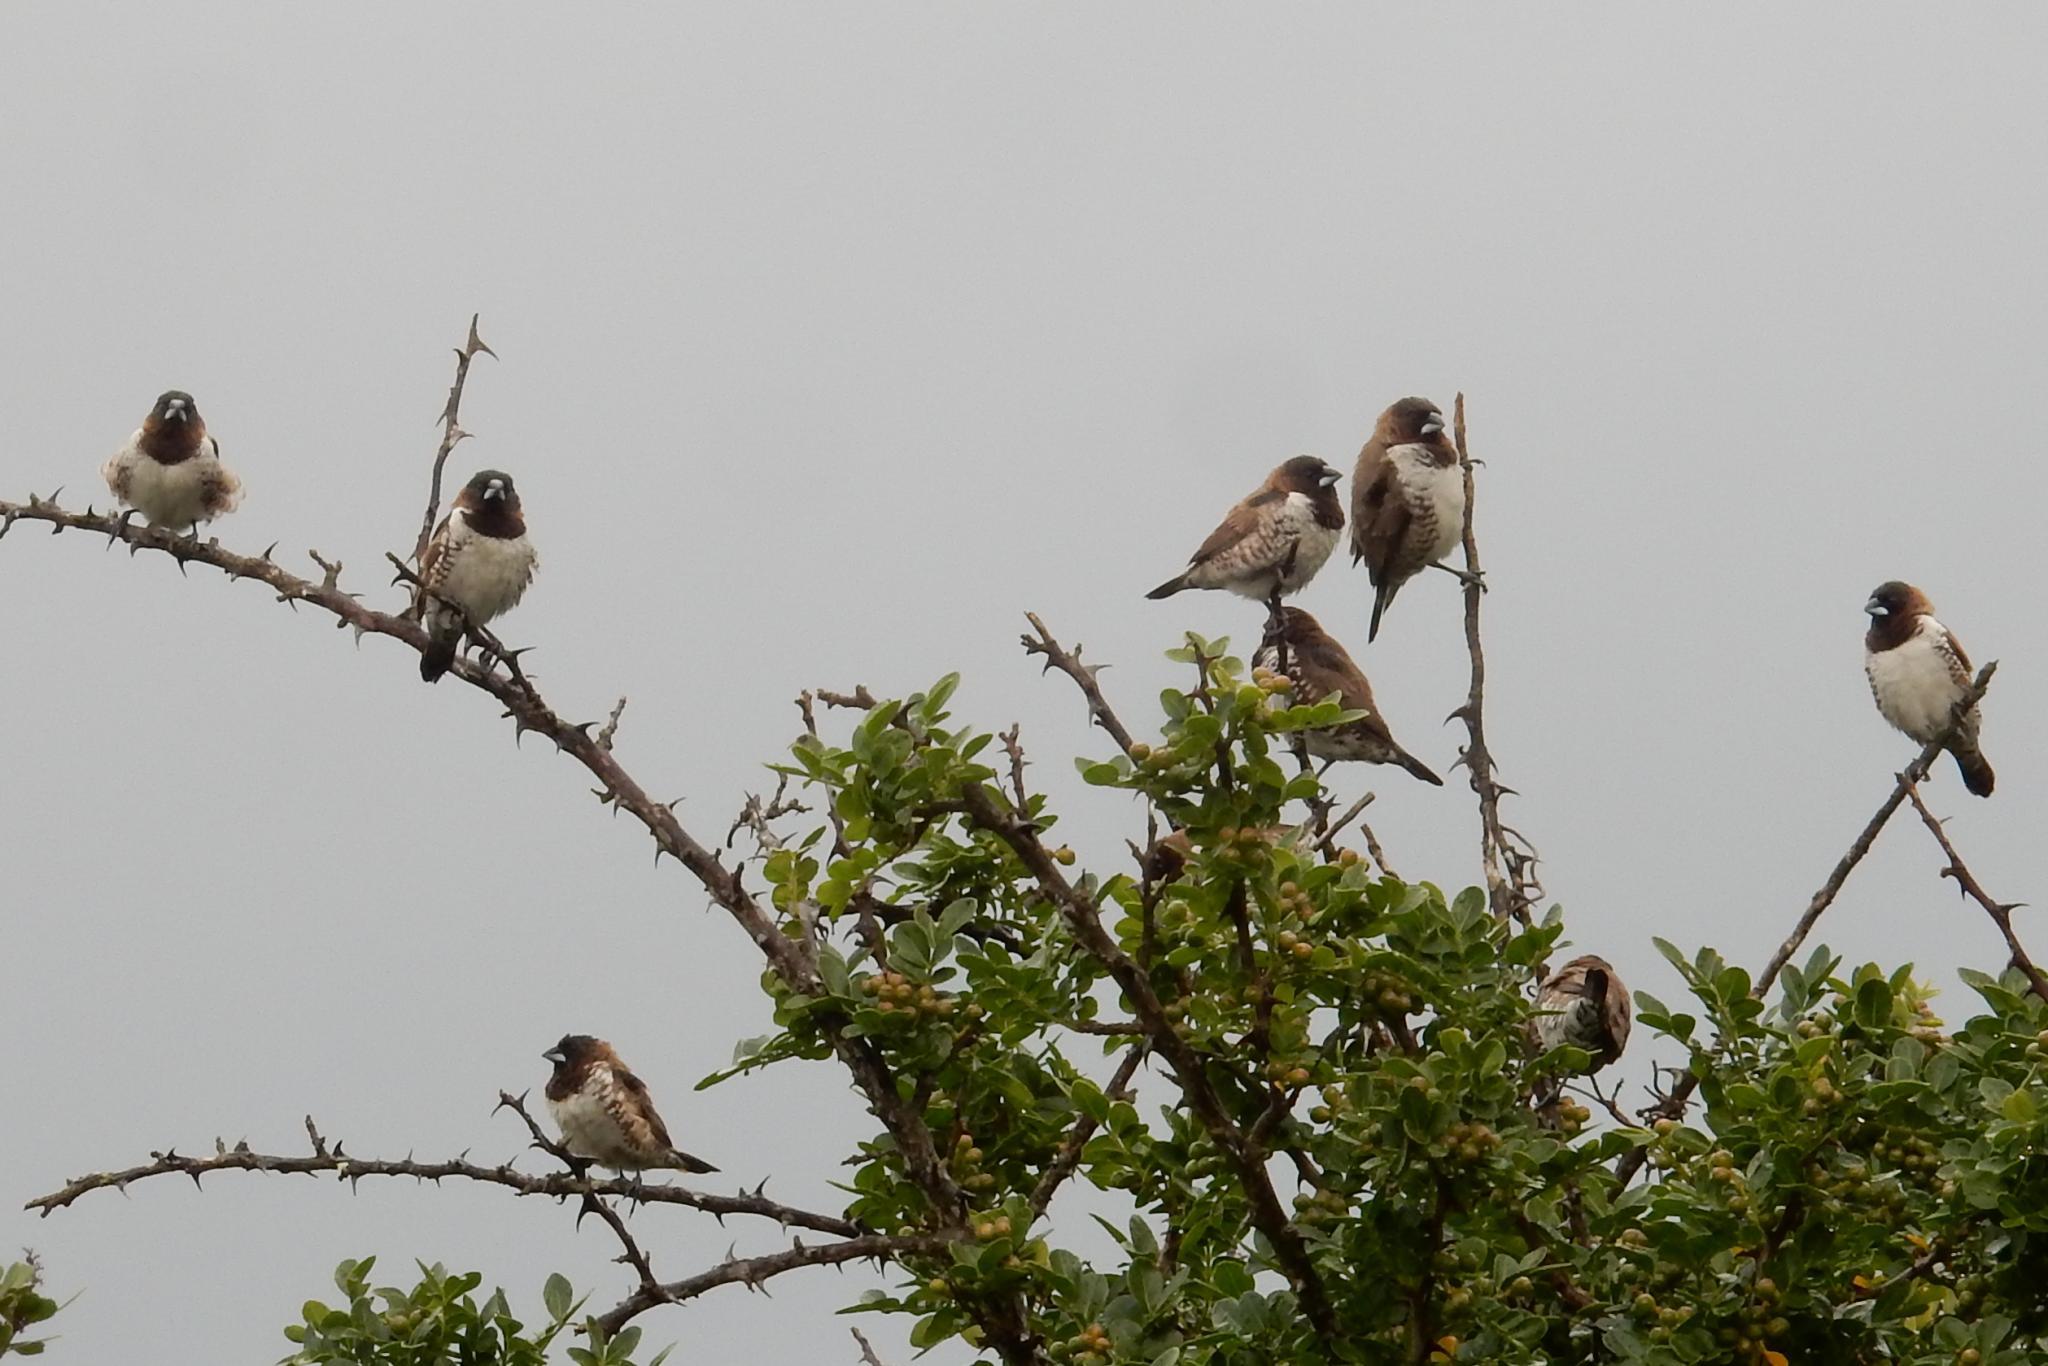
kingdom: Animalia
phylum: Chordata
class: Aves
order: Passeriformes
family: Estrildidae
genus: Lonchura
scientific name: Lonchura cucullata
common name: Bronze mannikin
